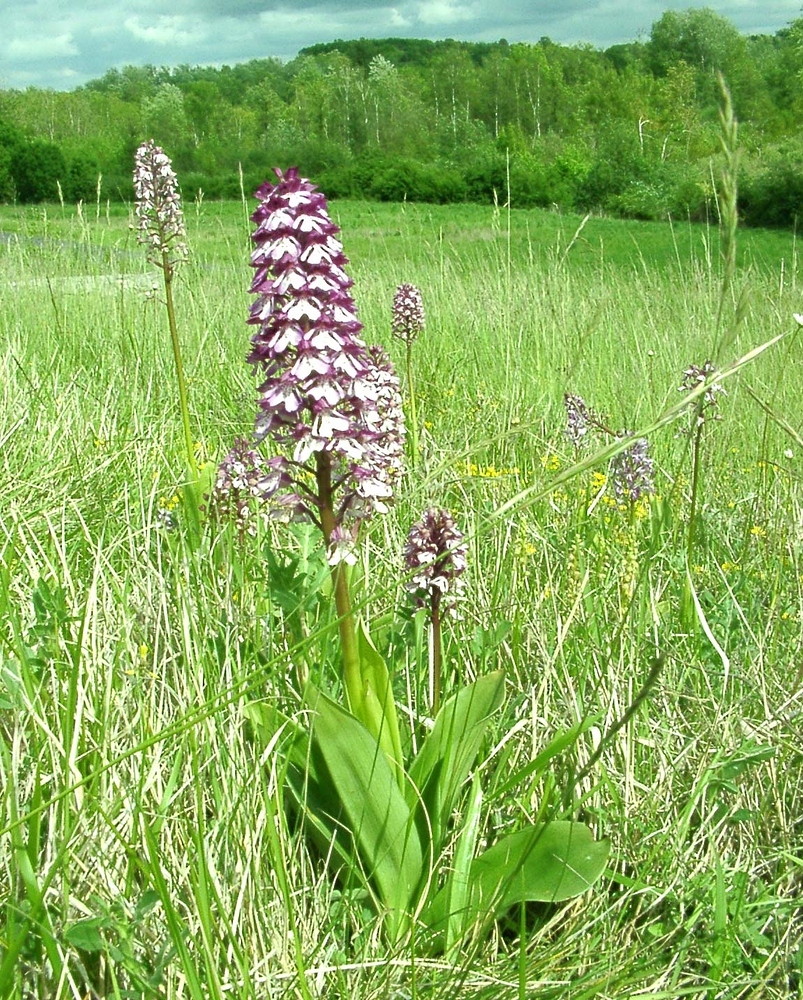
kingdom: Plantae
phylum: Tracheophyta
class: Liliopsida
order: Asparagales
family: Orchidaceae
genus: Orchis
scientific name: Orchis hybrida
